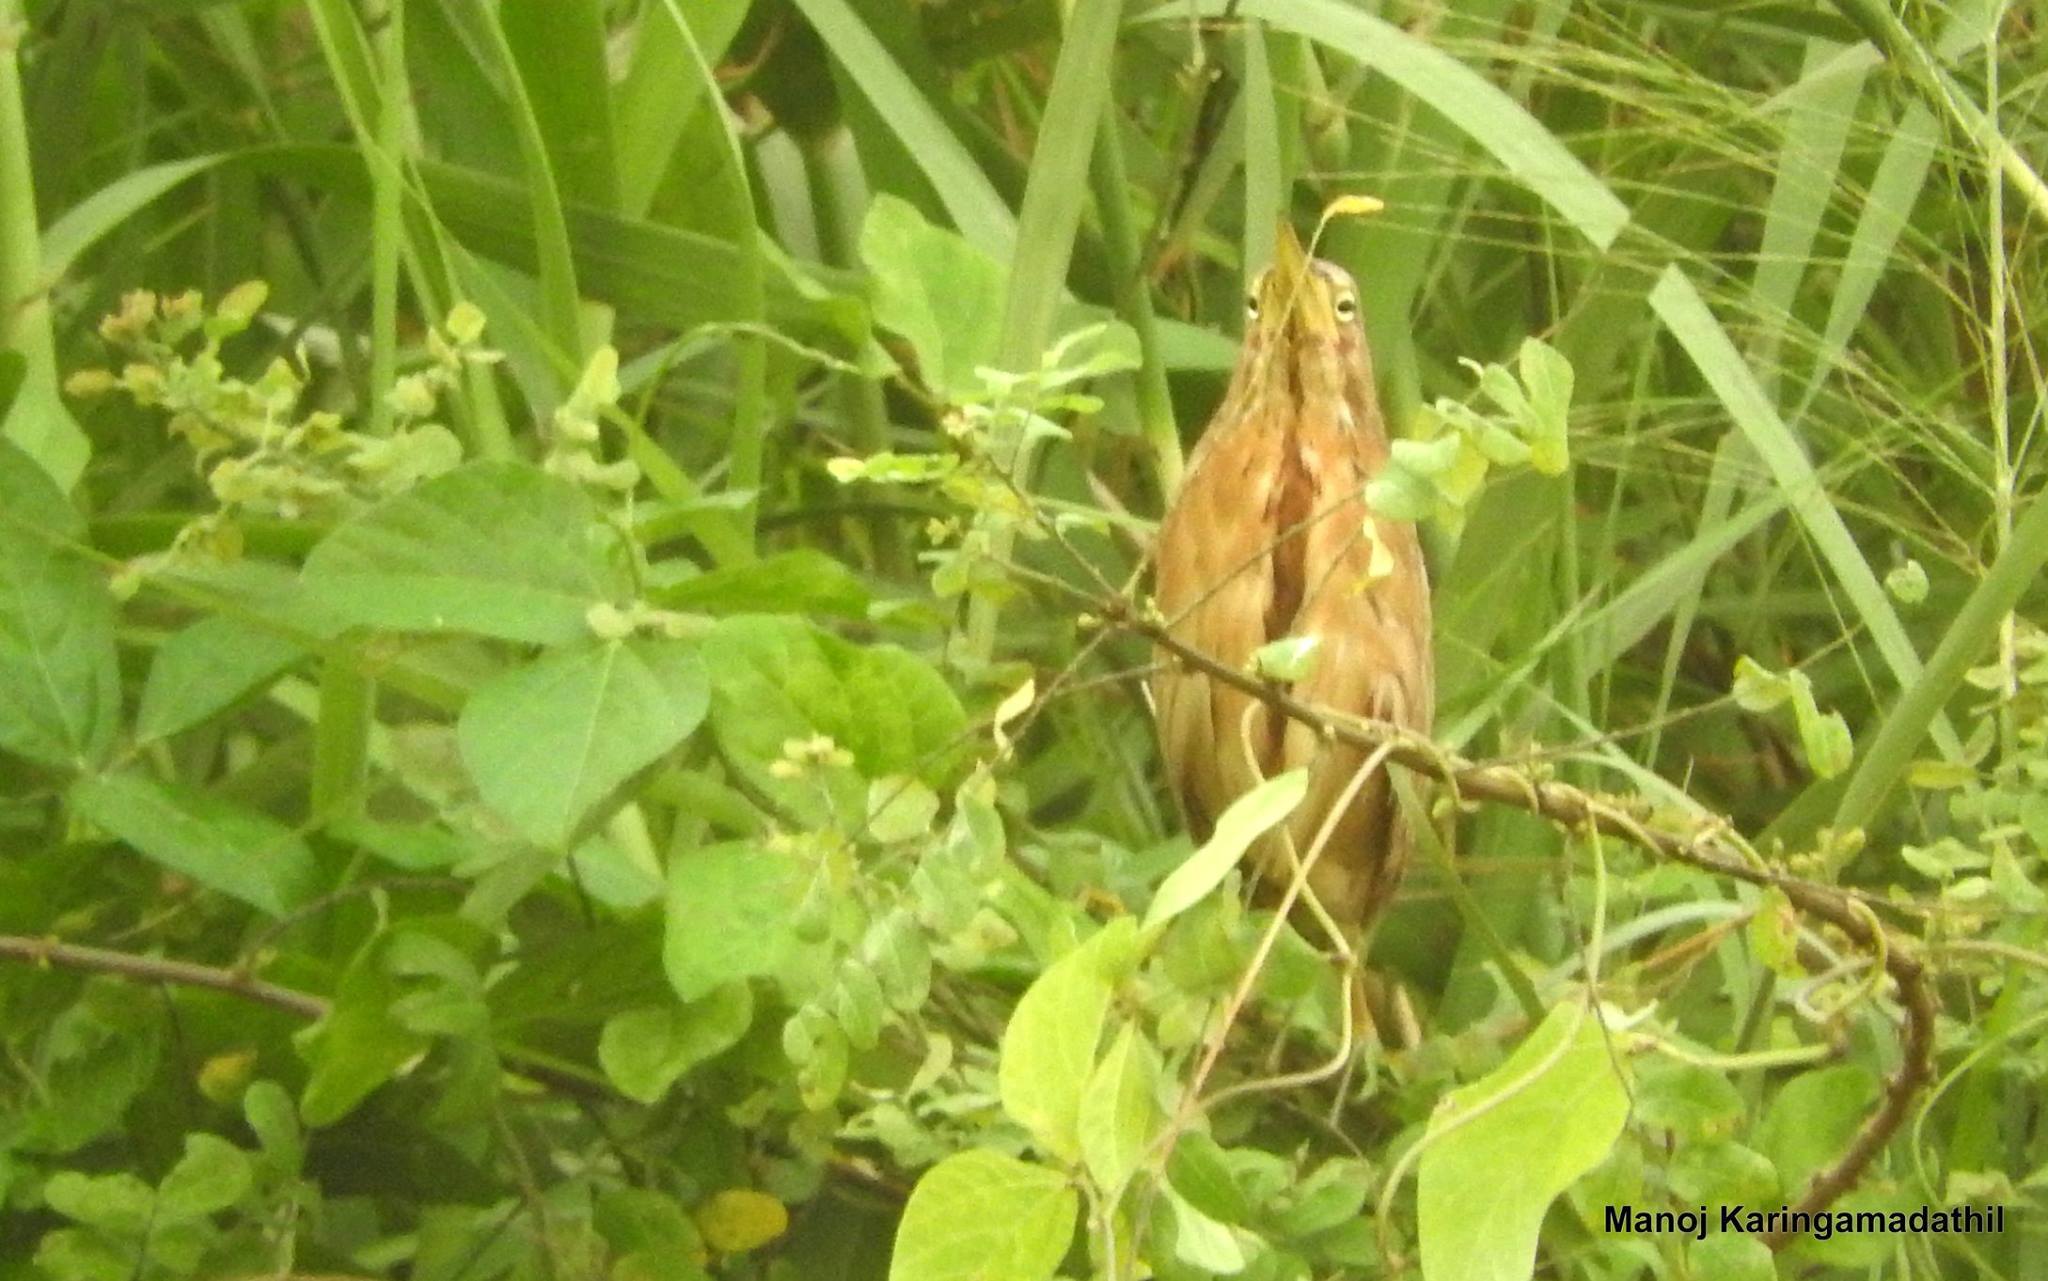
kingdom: Animalia
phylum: Chordata
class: Aves
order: Pelecaniformes
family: Ardeidae
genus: Ixobrychus
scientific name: Ixobrychus cinnamomeus
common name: Cinnamon bittern
